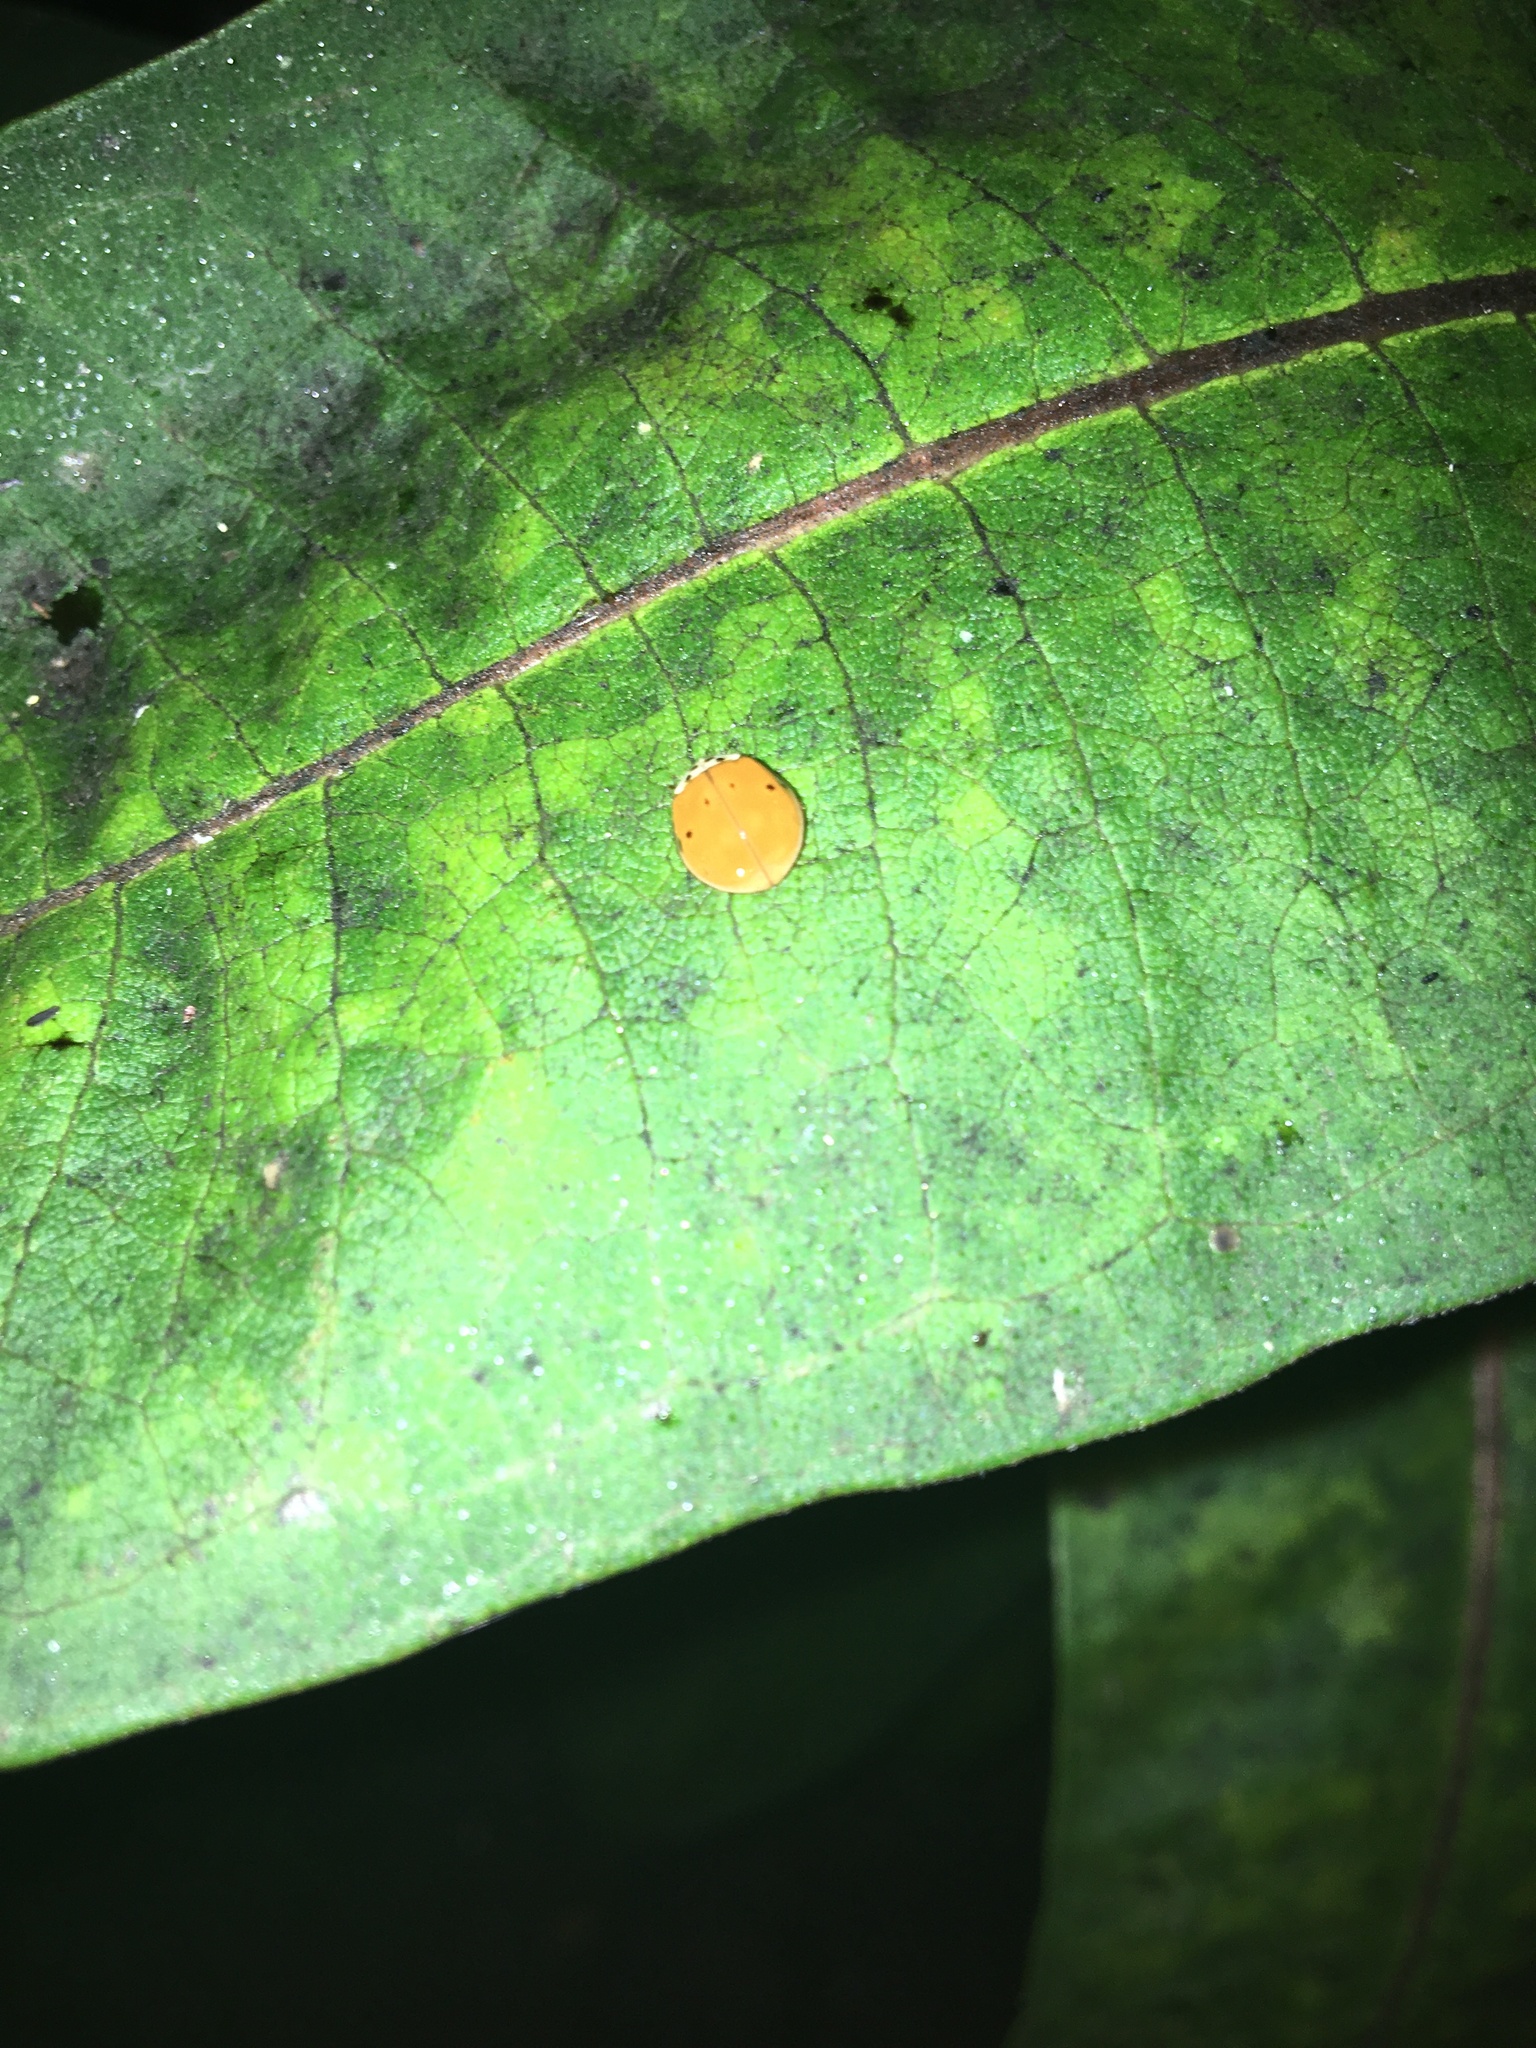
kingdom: Animalia
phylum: Arthropoda
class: Insecta
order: Coleoptera
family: Coccinellidae
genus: Harmonia
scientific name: Harmonia axyridis
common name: Harlequin ladybird
